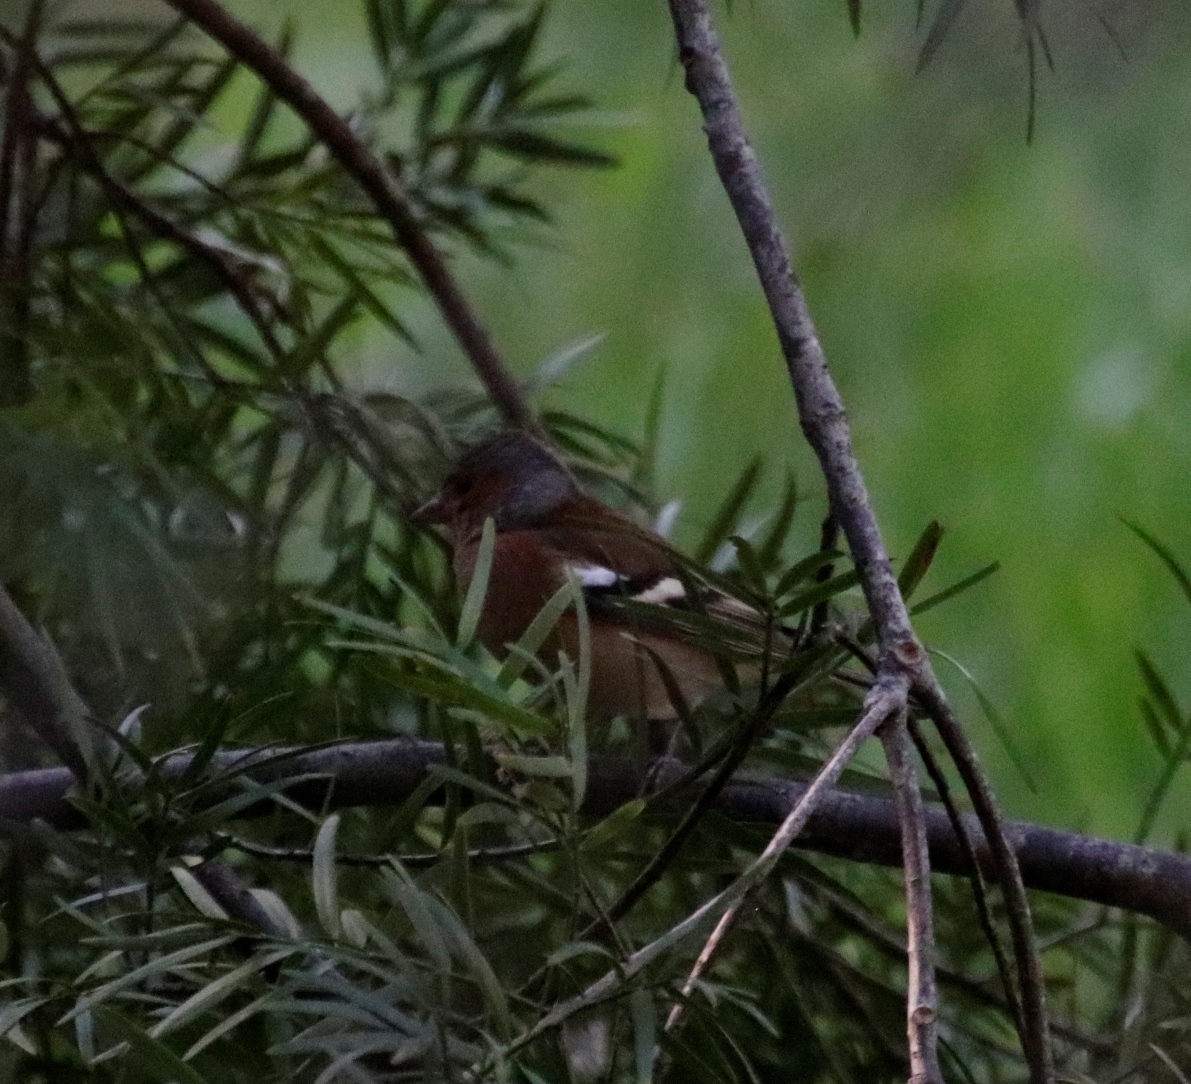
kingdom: Animalia
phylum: Chordata
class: Aves
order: Passeriformes
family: Fringillidae
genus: Fringilla
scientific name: Fringilla coelebs
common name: Common chaffinch
